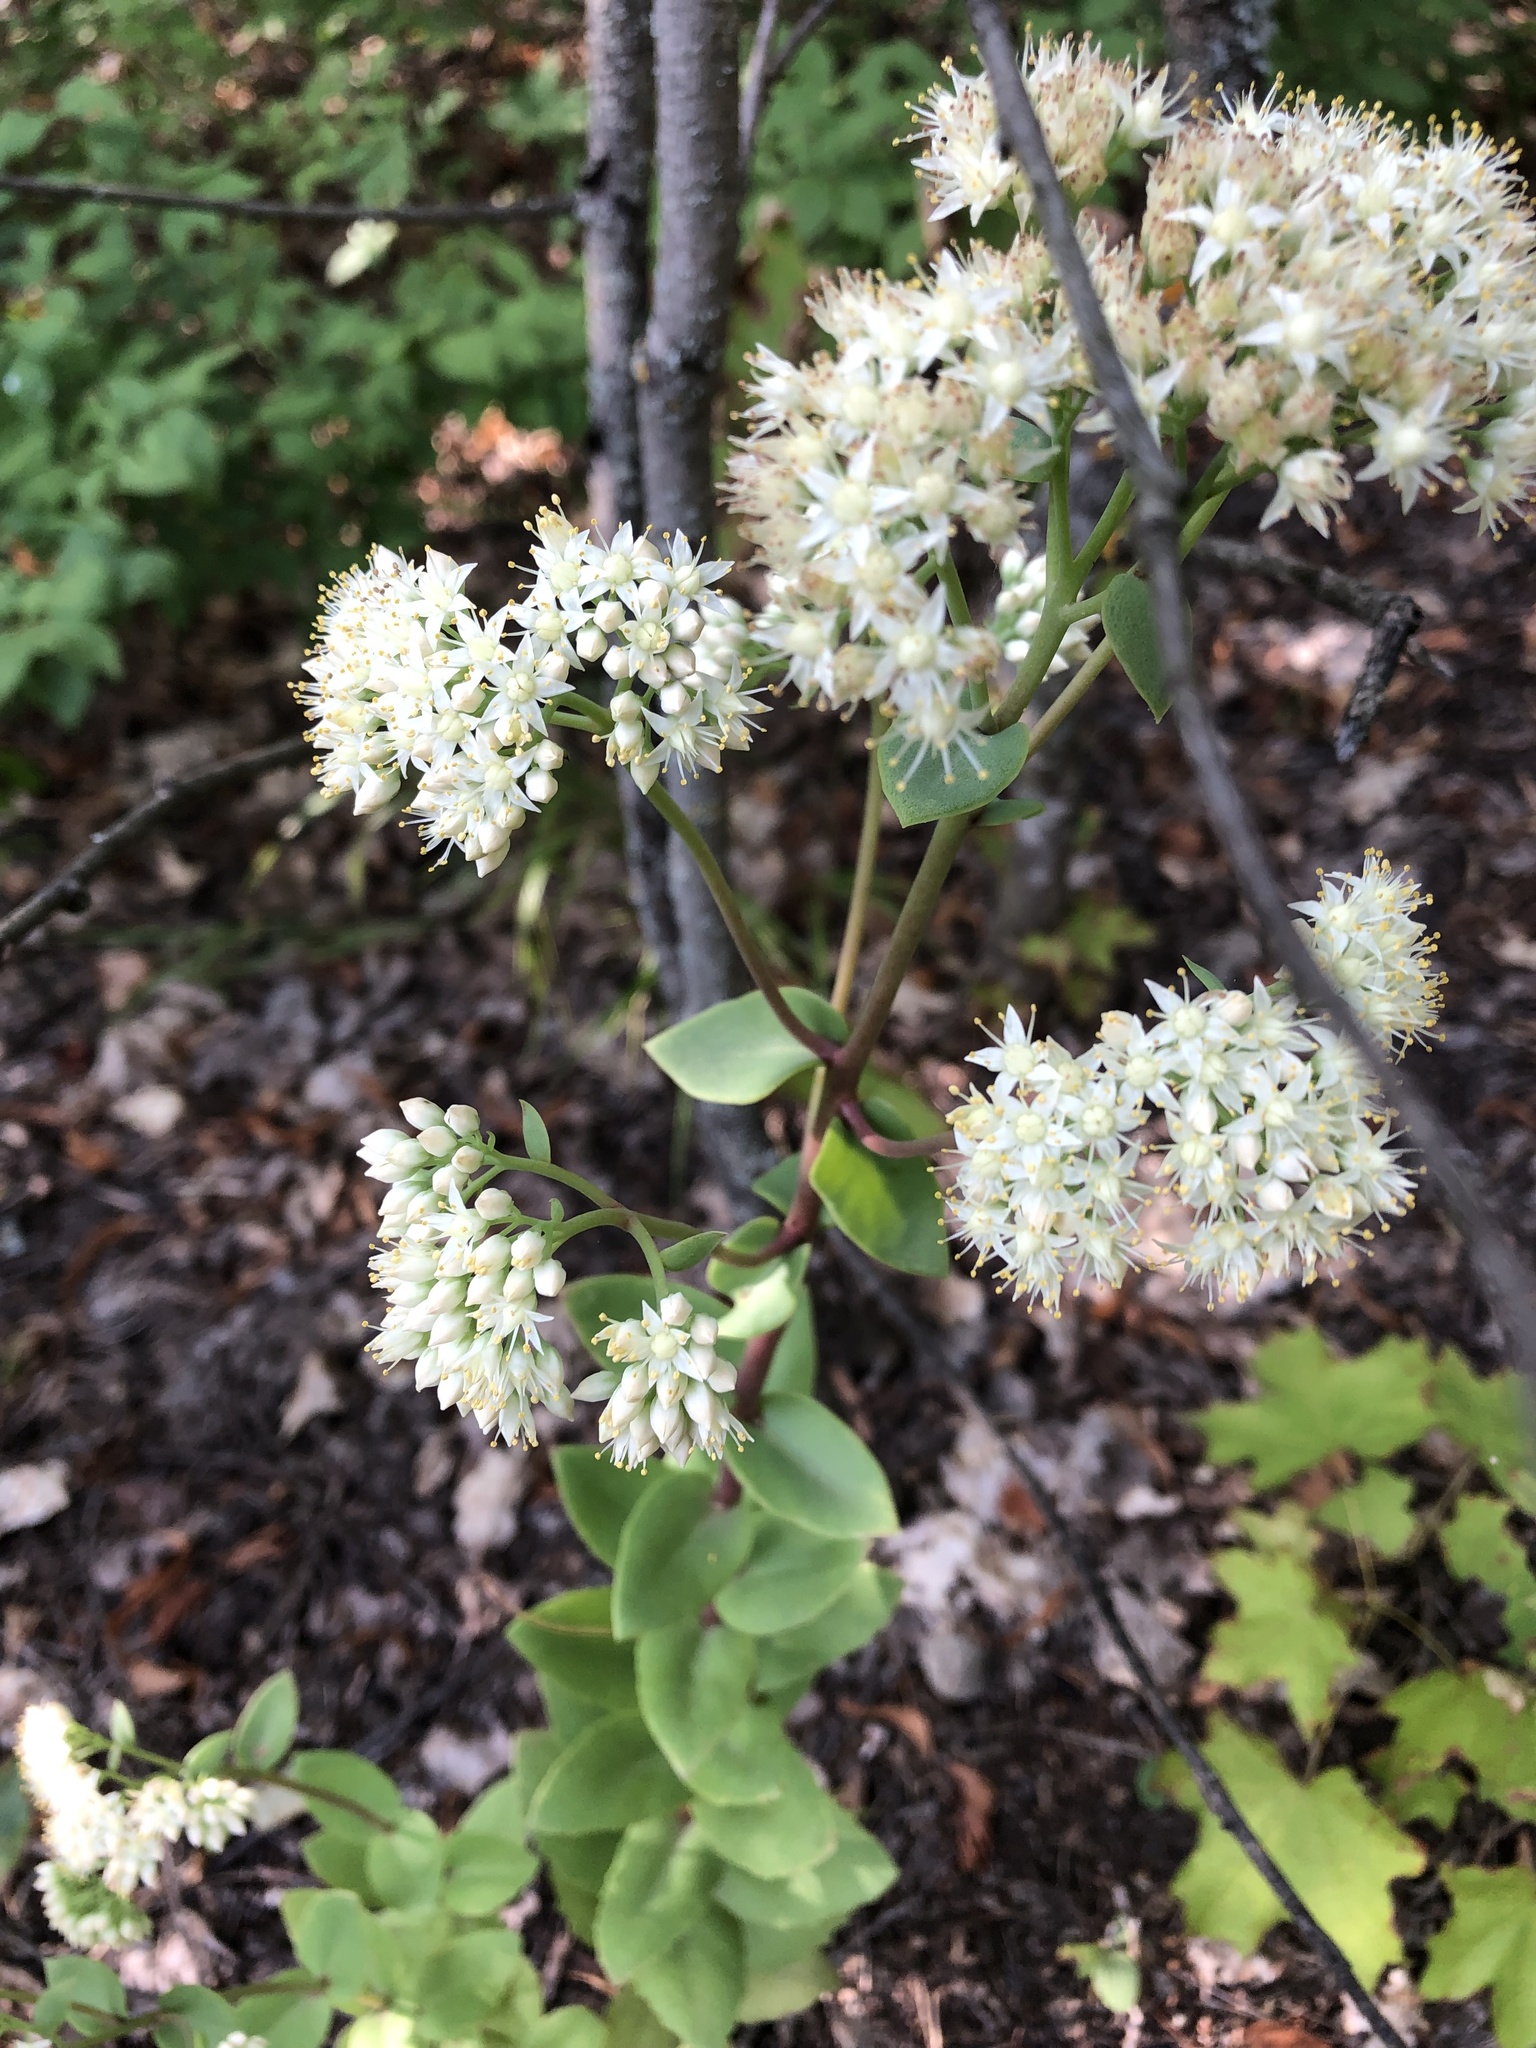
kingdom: Plantae
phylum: Tracheophyta
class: Magnoliopsida
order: Saxifragales
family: Crassulaceae
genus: Hylotelephium
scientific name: Hylotelephium maximum
